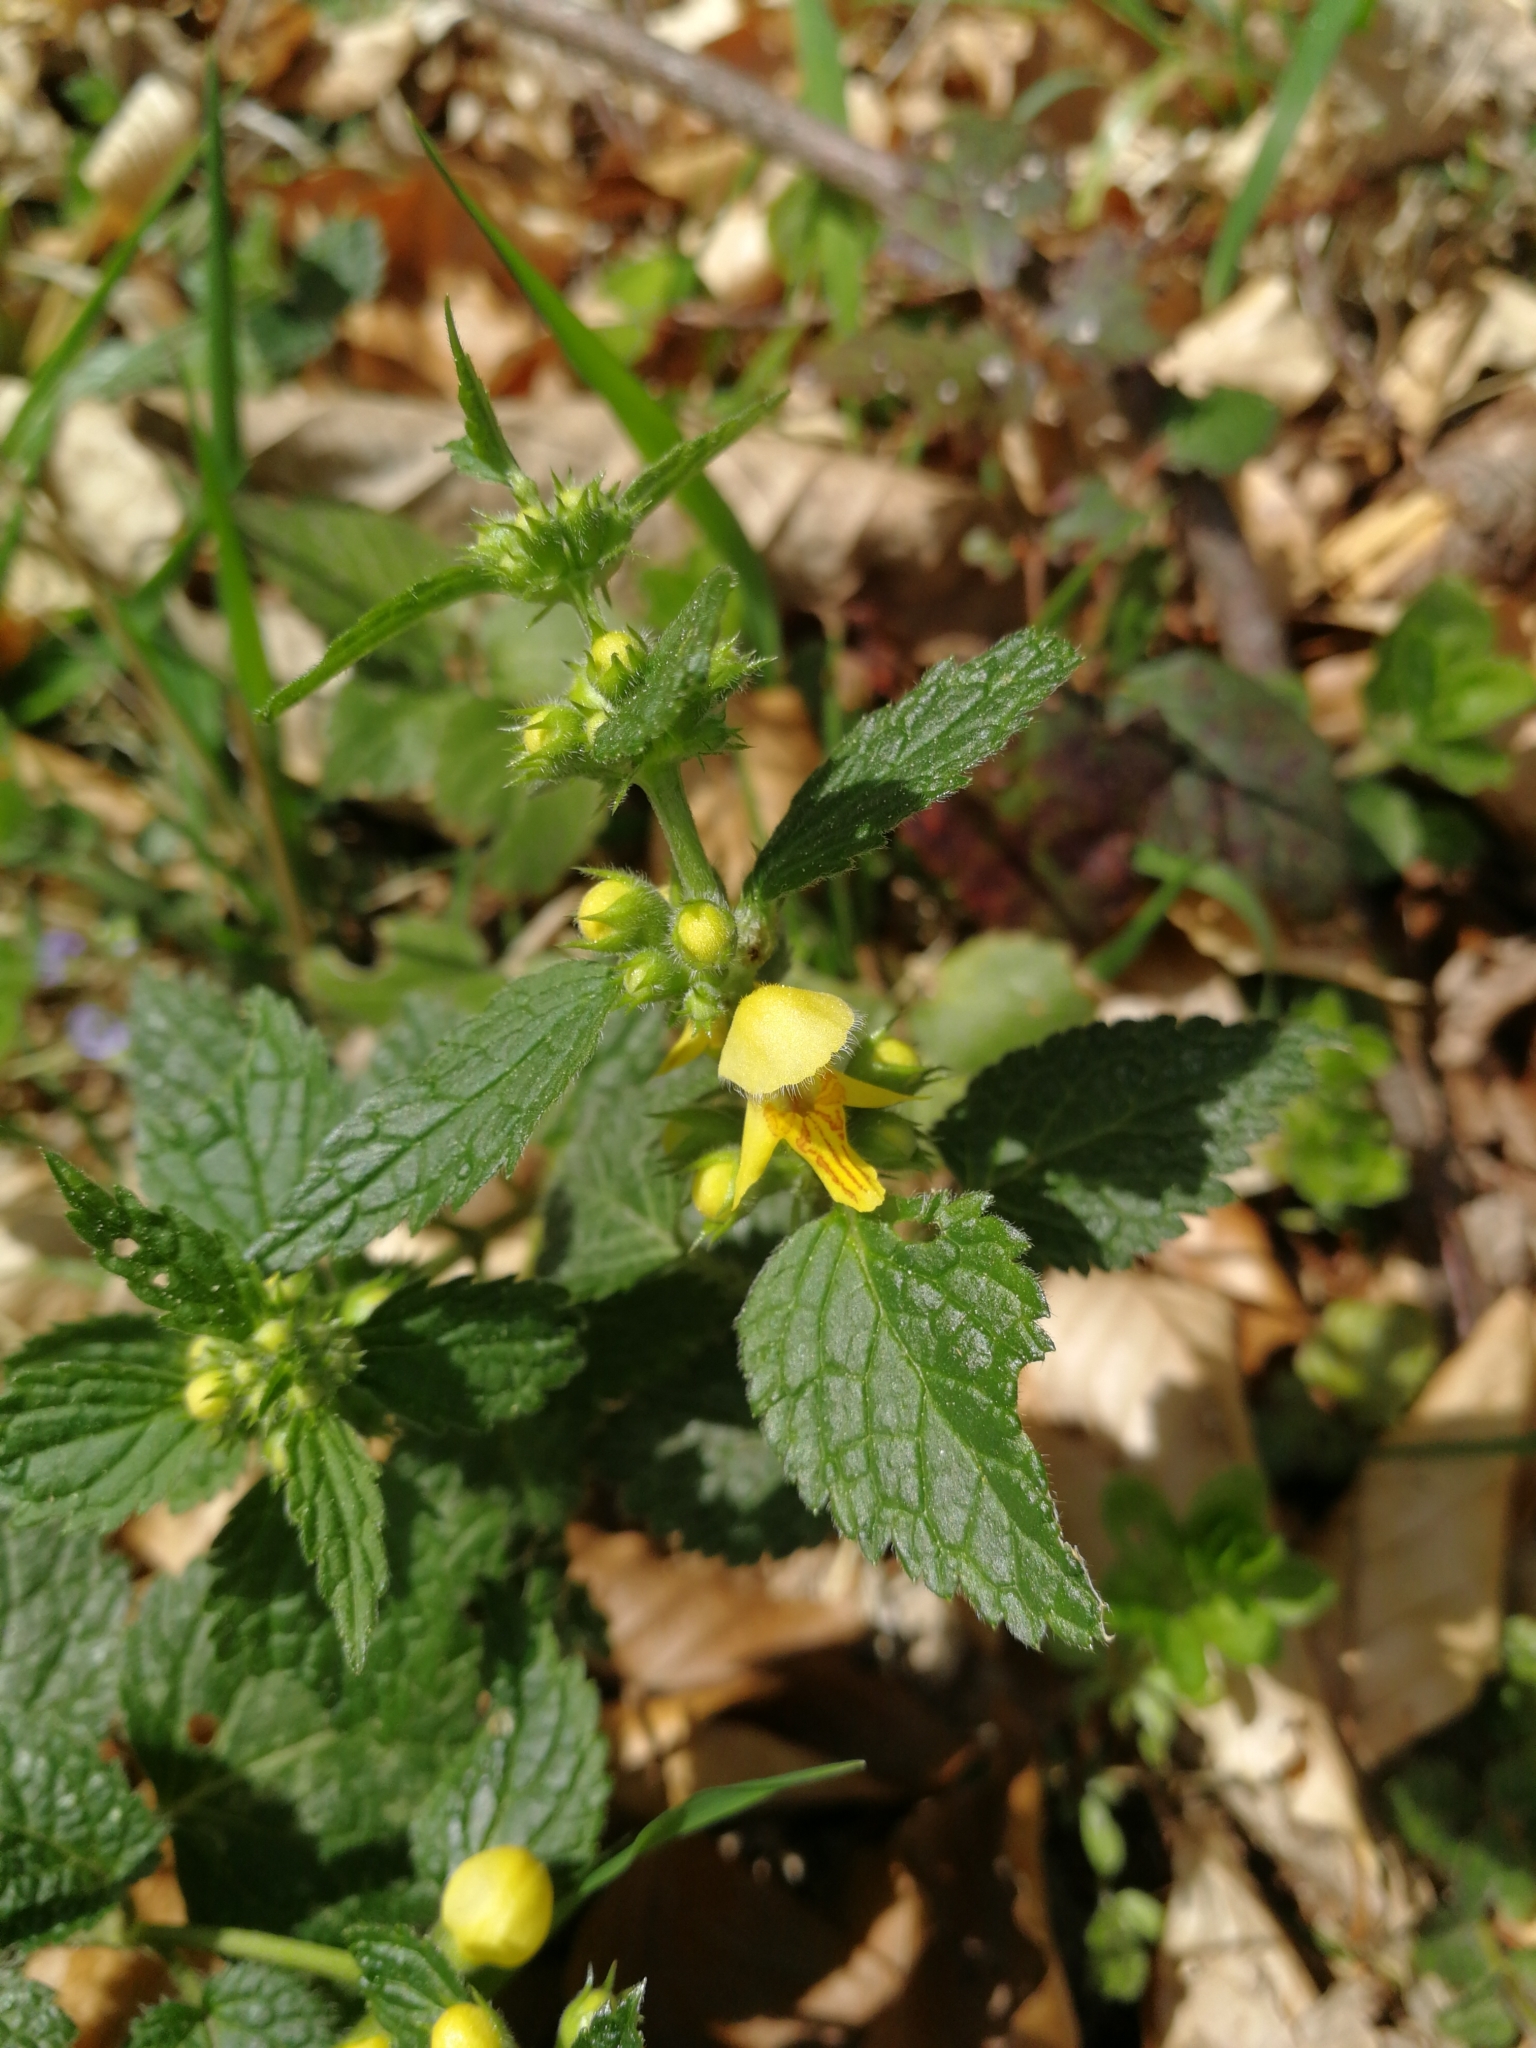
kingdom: Plantae
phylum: Tracheophyta
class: Magnoliopsida
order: Lamiales
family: Lamiaceae
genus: Lamium
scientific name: Lamium galeobdolon
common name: Yellow archangel
